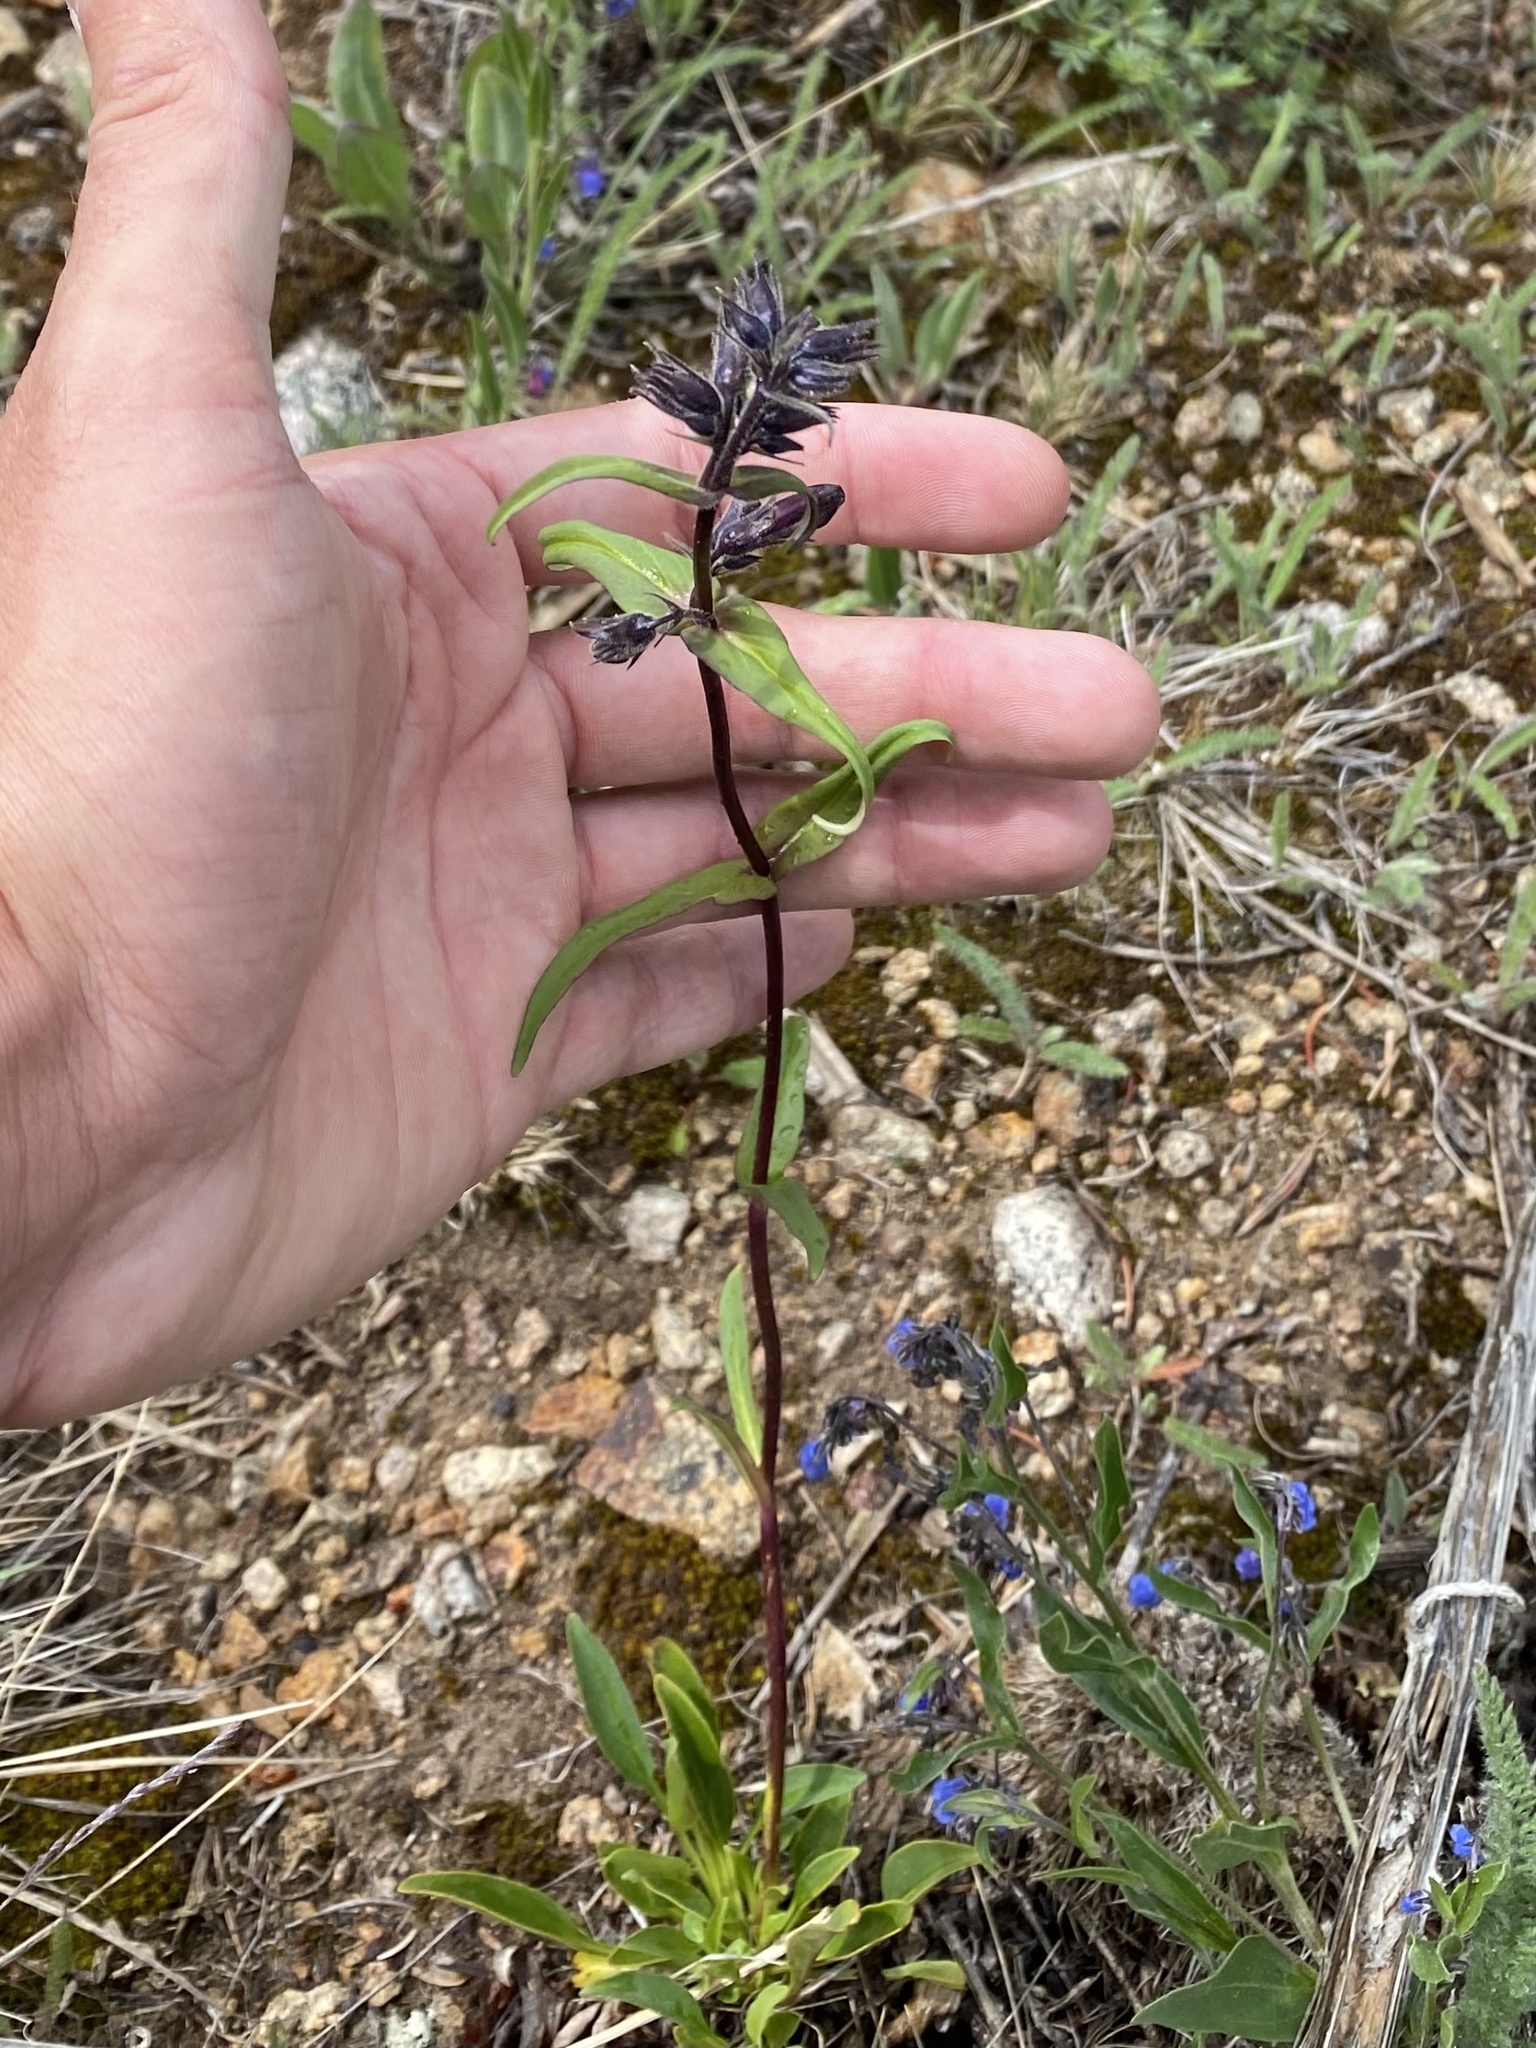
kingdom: Plantae
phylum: Tracheophyta
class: Magnoliopsida
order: Lamiales
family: Plantaginaceae
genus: Penstemon
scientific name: Penstemon whippleanus
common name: Whipple's penstemon
